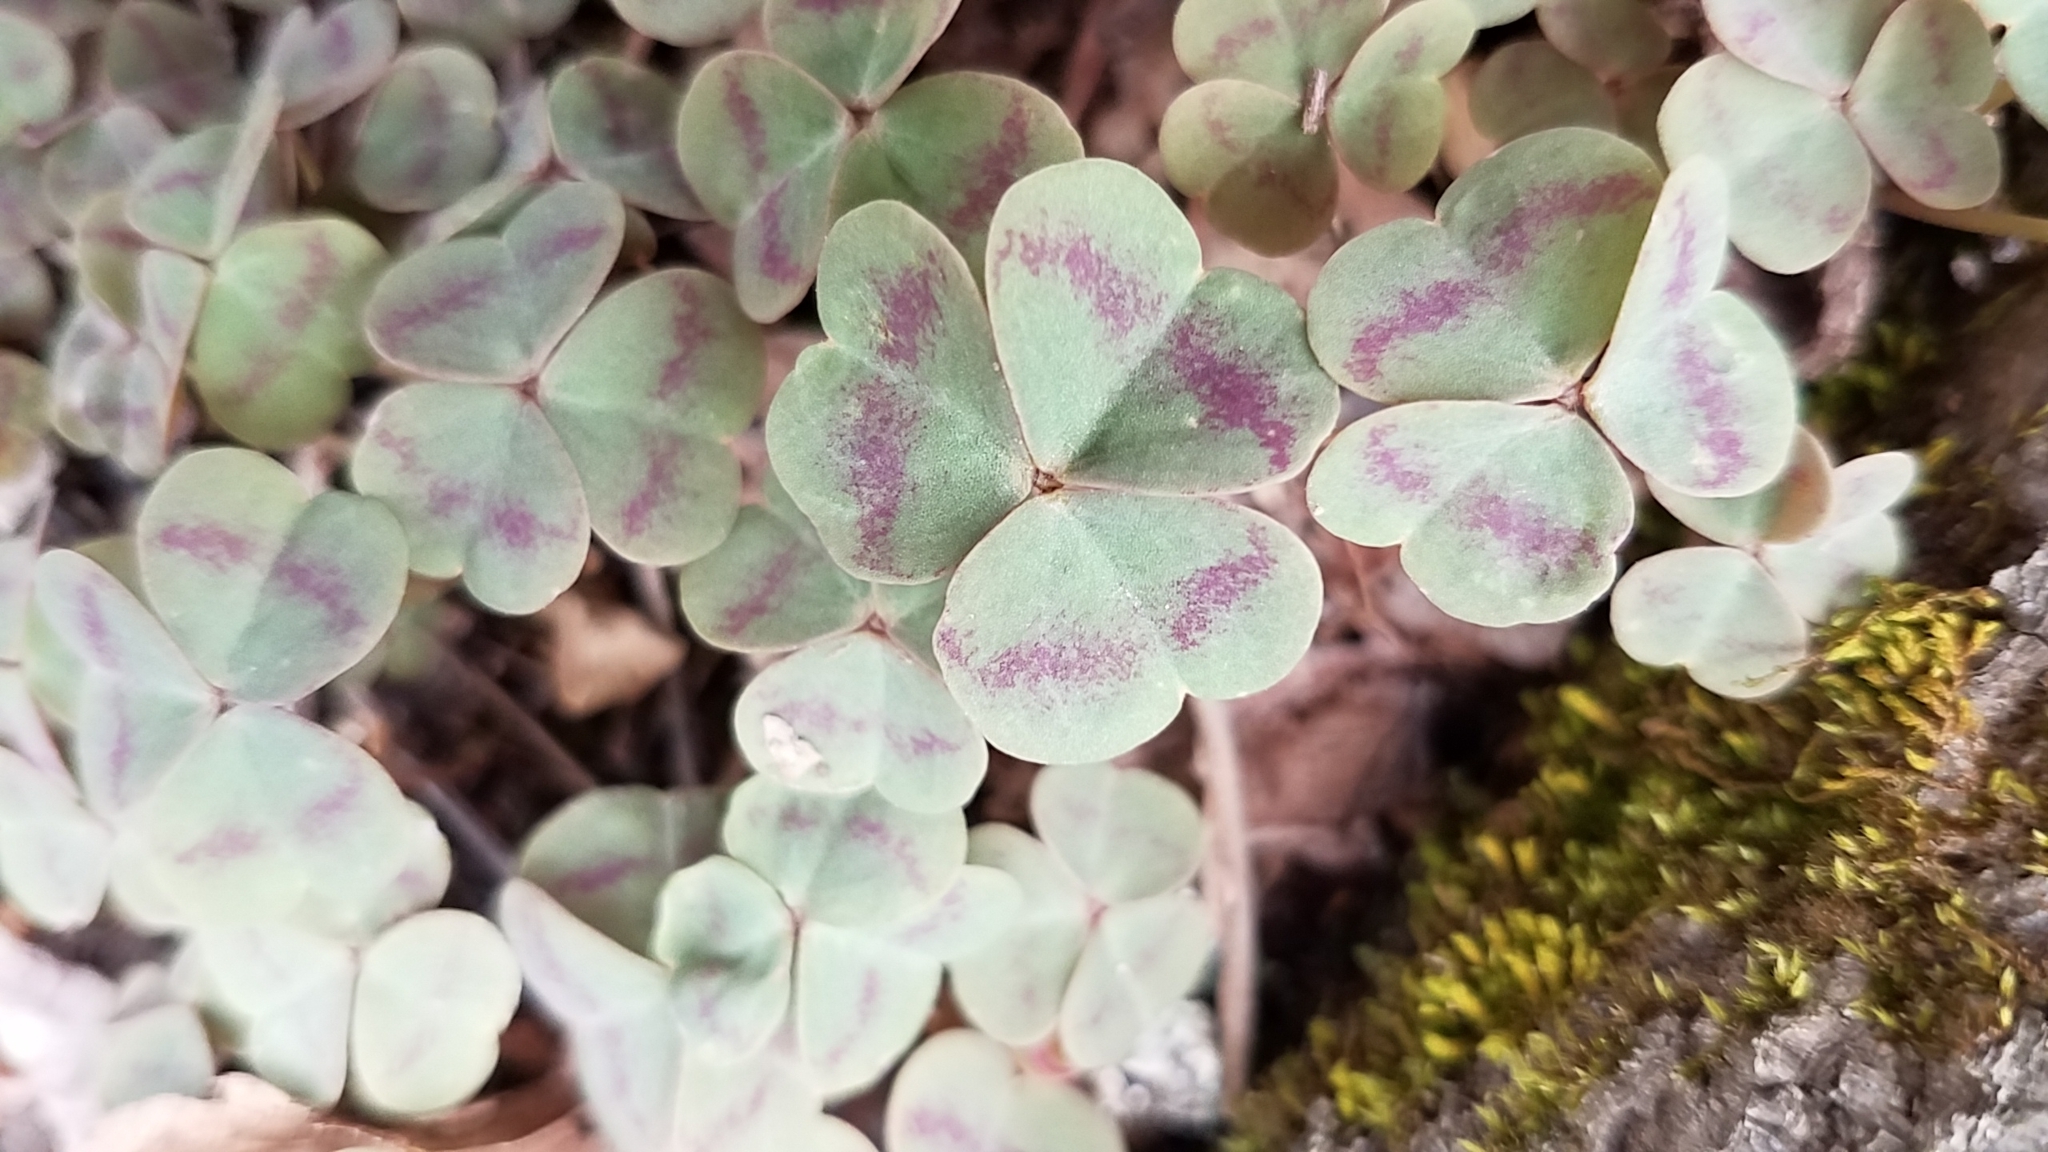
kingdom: Plantae
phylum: Tracheophyta
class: Magnoliopsida
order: Oxalidales
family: Oxalidaceae
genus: Oxalis
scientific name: Oxalis violacea
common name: Violet wood-sorrel
